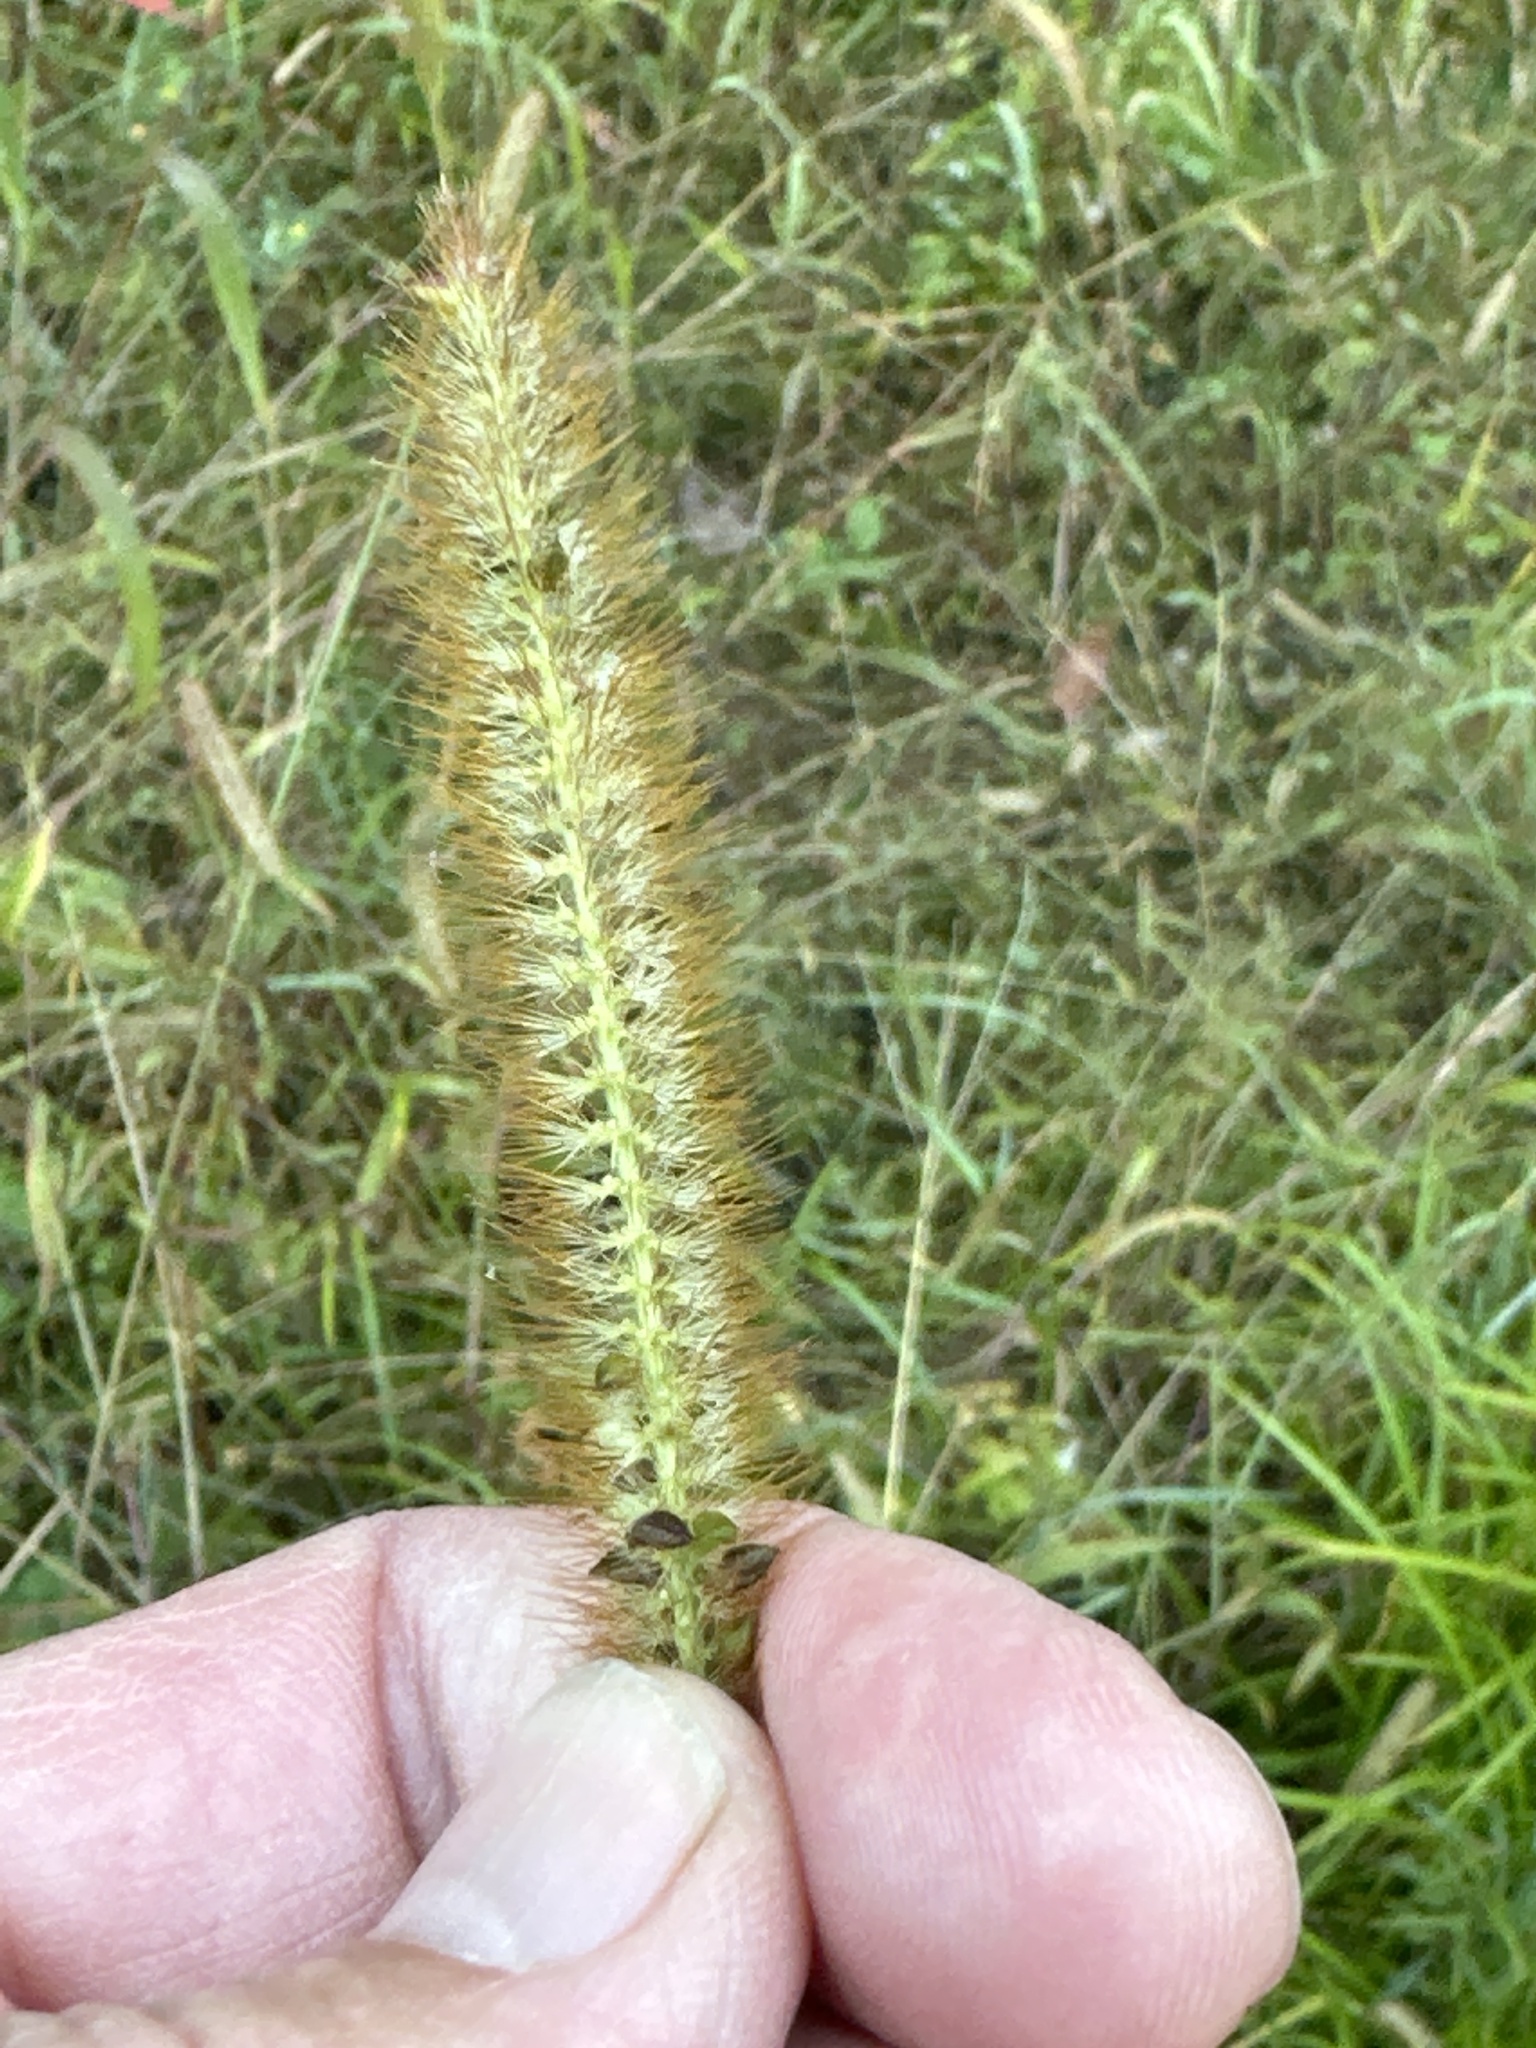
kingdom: Plantae
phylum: Tracheophyta
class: Liliopsida
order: Poales
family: Poaceae
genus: Setaria
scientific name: Setaria pumila
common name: Yellow bristle-grass
